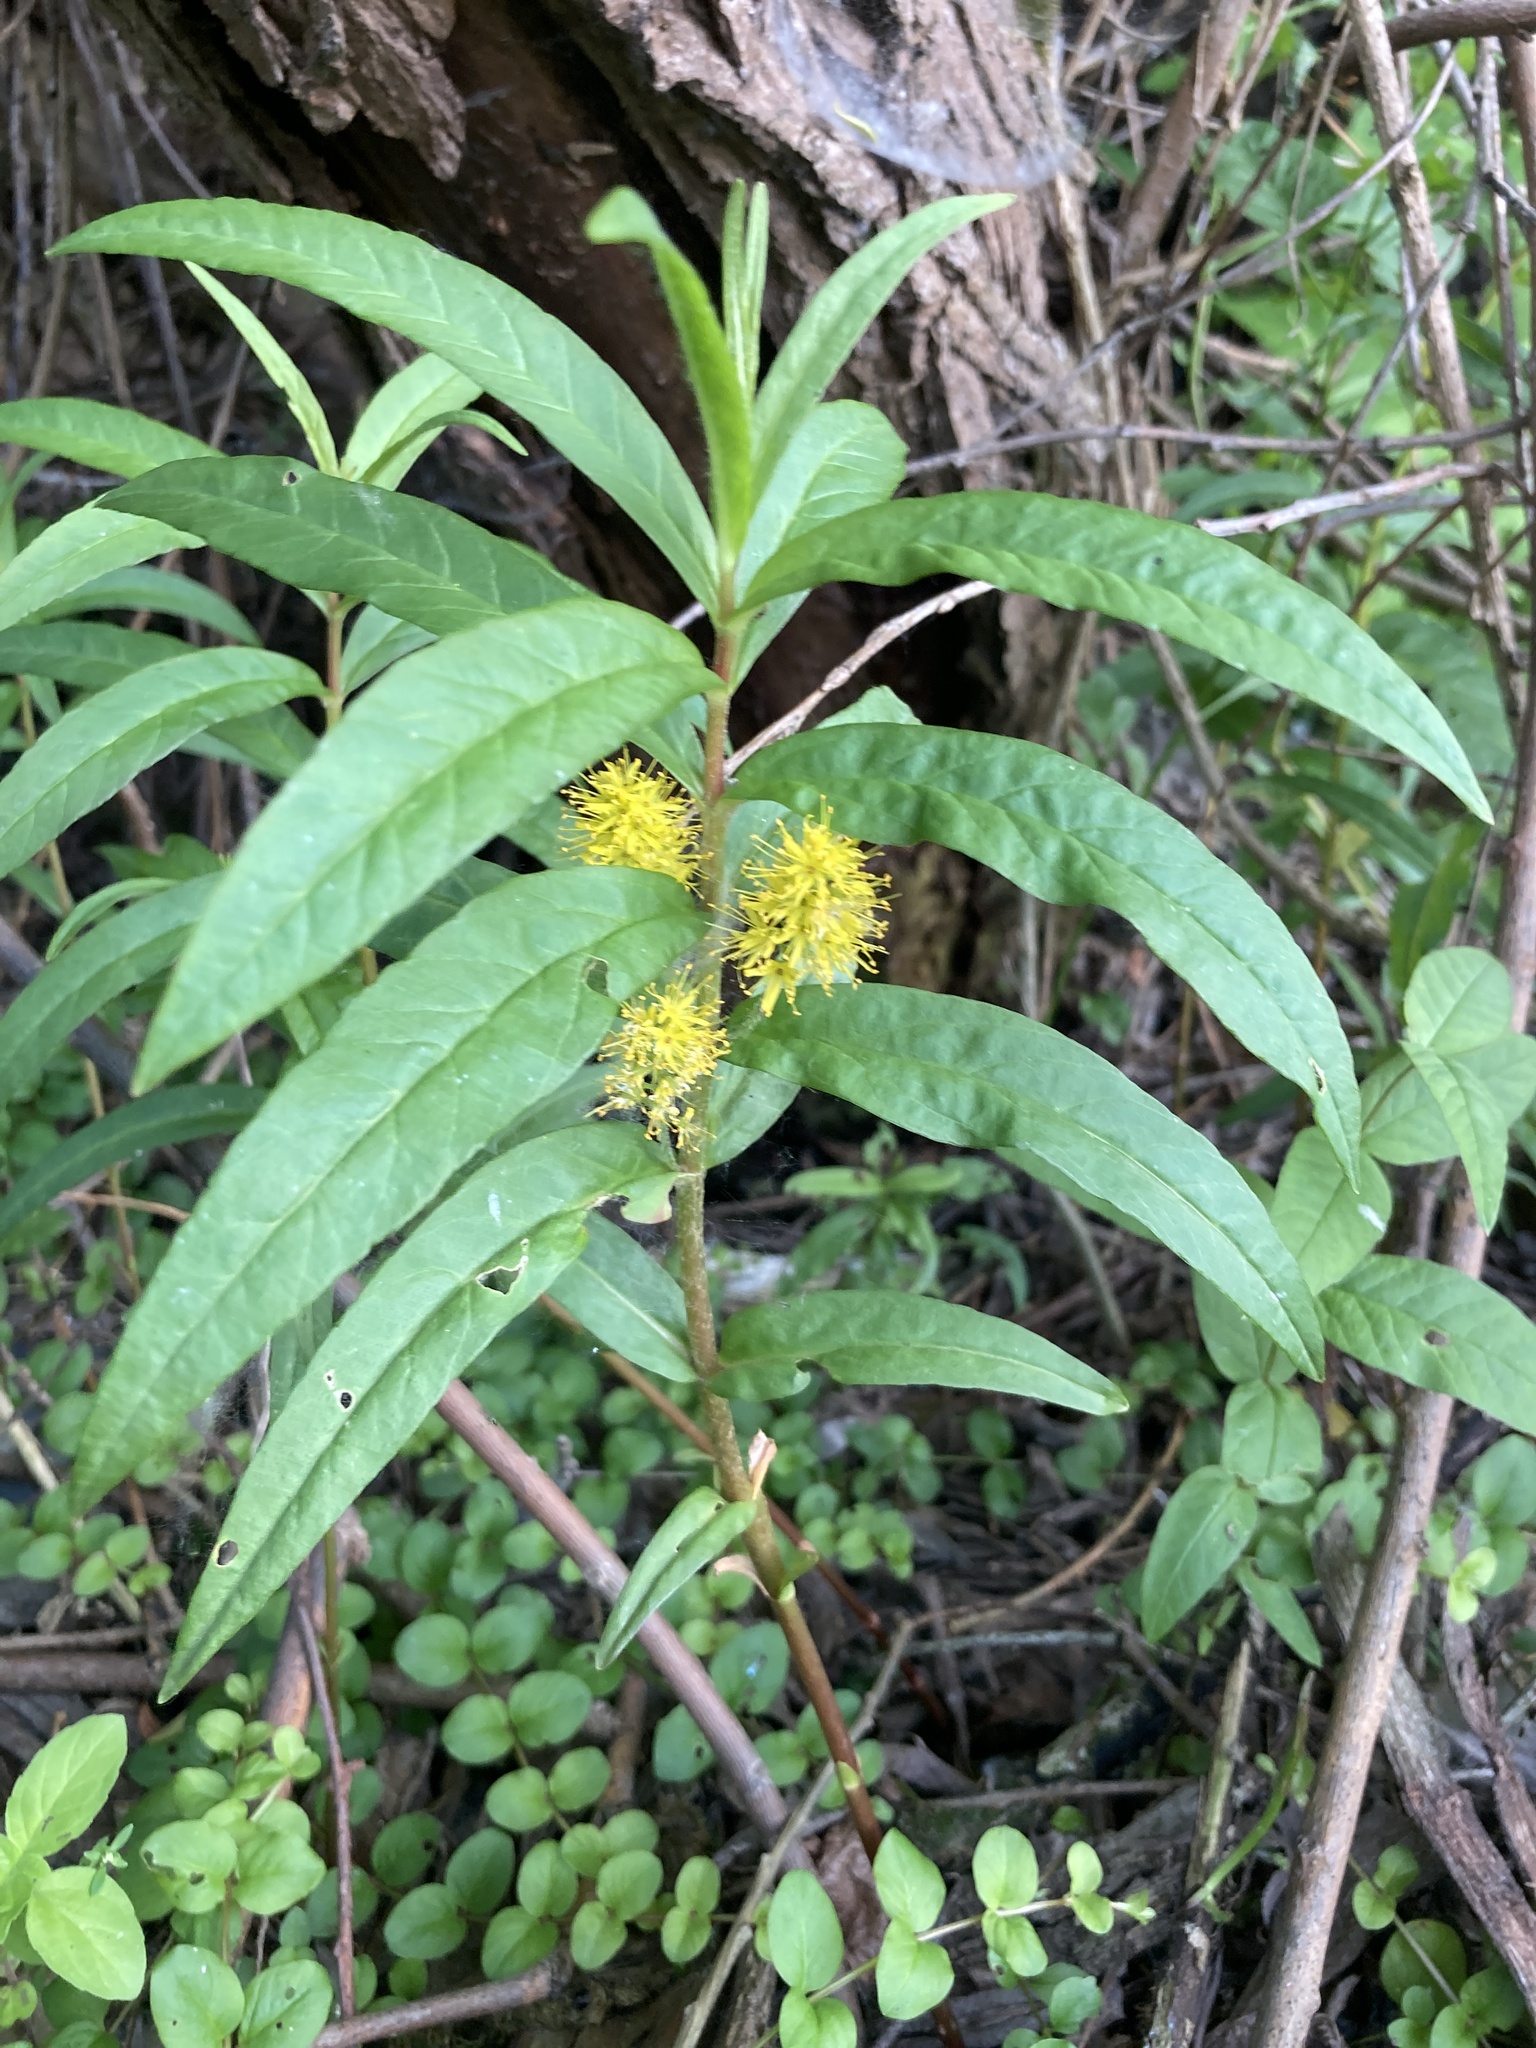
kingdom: Plantae
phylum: Tracheophyta
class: Magnoliopsida
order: Ericales
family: Primulaceae
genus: Lysimachia
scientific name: Lysimachia thyrsiflora
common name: Tufted loosestrife
